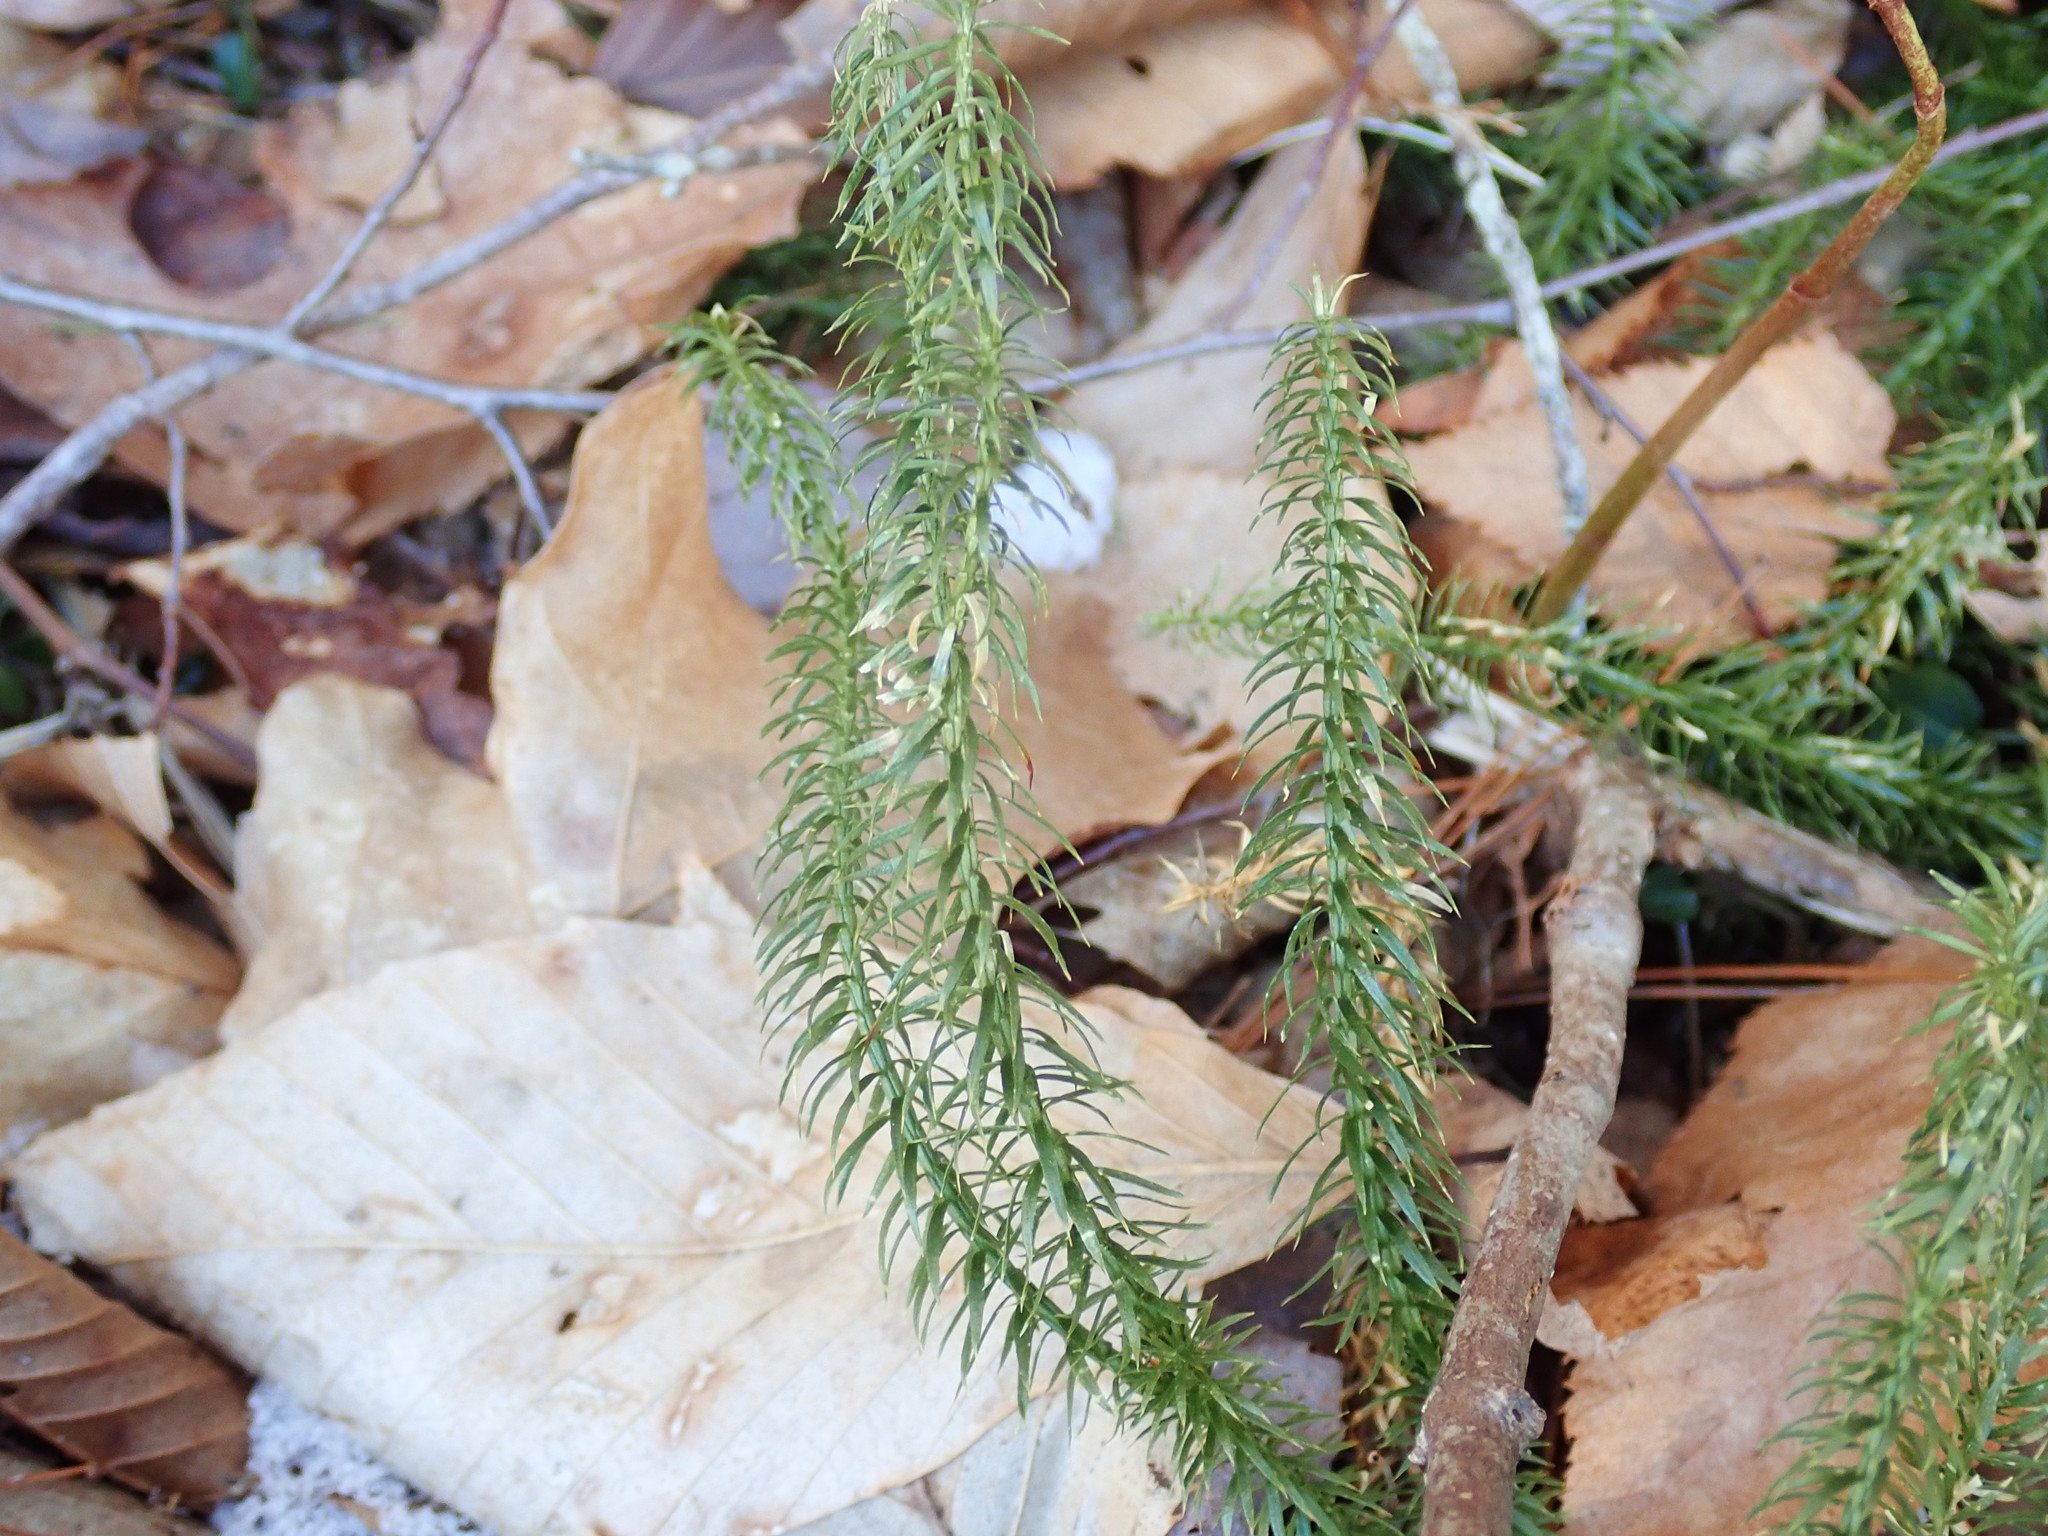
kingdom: Plantae
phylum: Tracheophyta
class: Lycopodiopsida
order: Lycopodiales
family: Lycopodiaceae
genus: Spinulum
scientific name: Spinulum annotinum
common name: Interrupted club-moss
